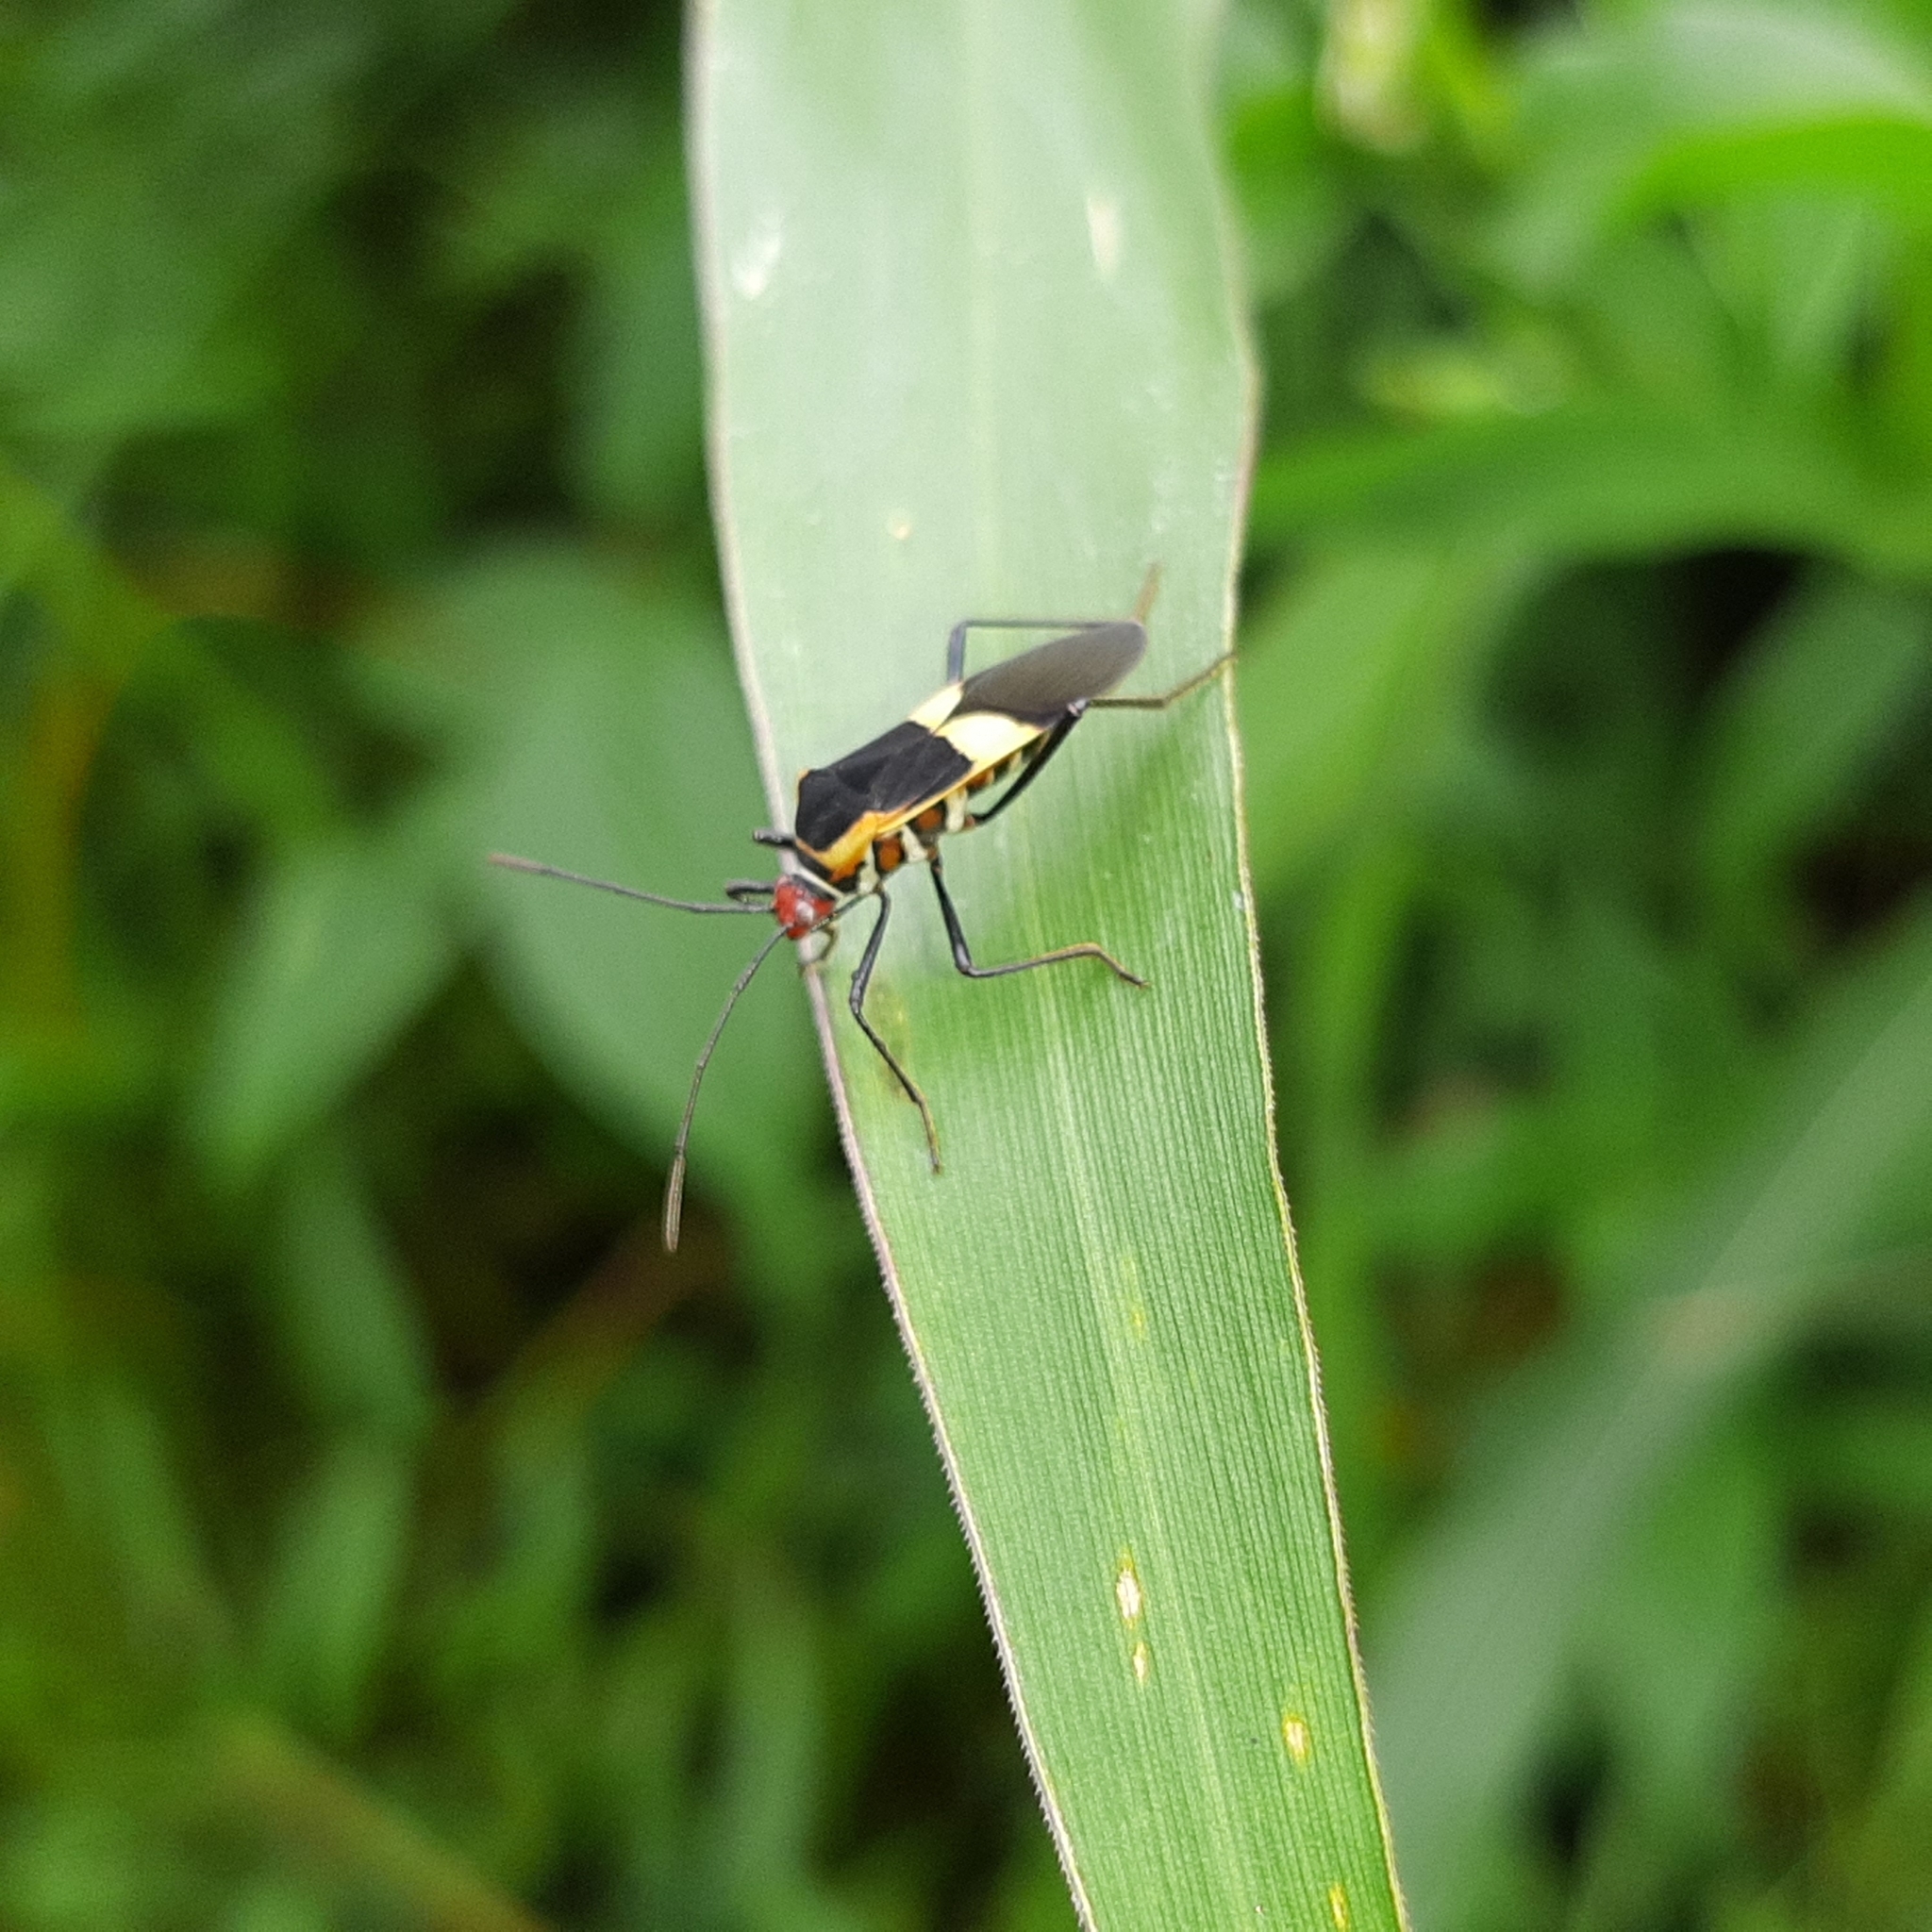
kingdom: Animalia
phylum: Arthropoda
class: Insecta
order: Hemiptera
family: Coreidae
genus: Hypselonotus
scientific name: Hypselonotus interruptus
